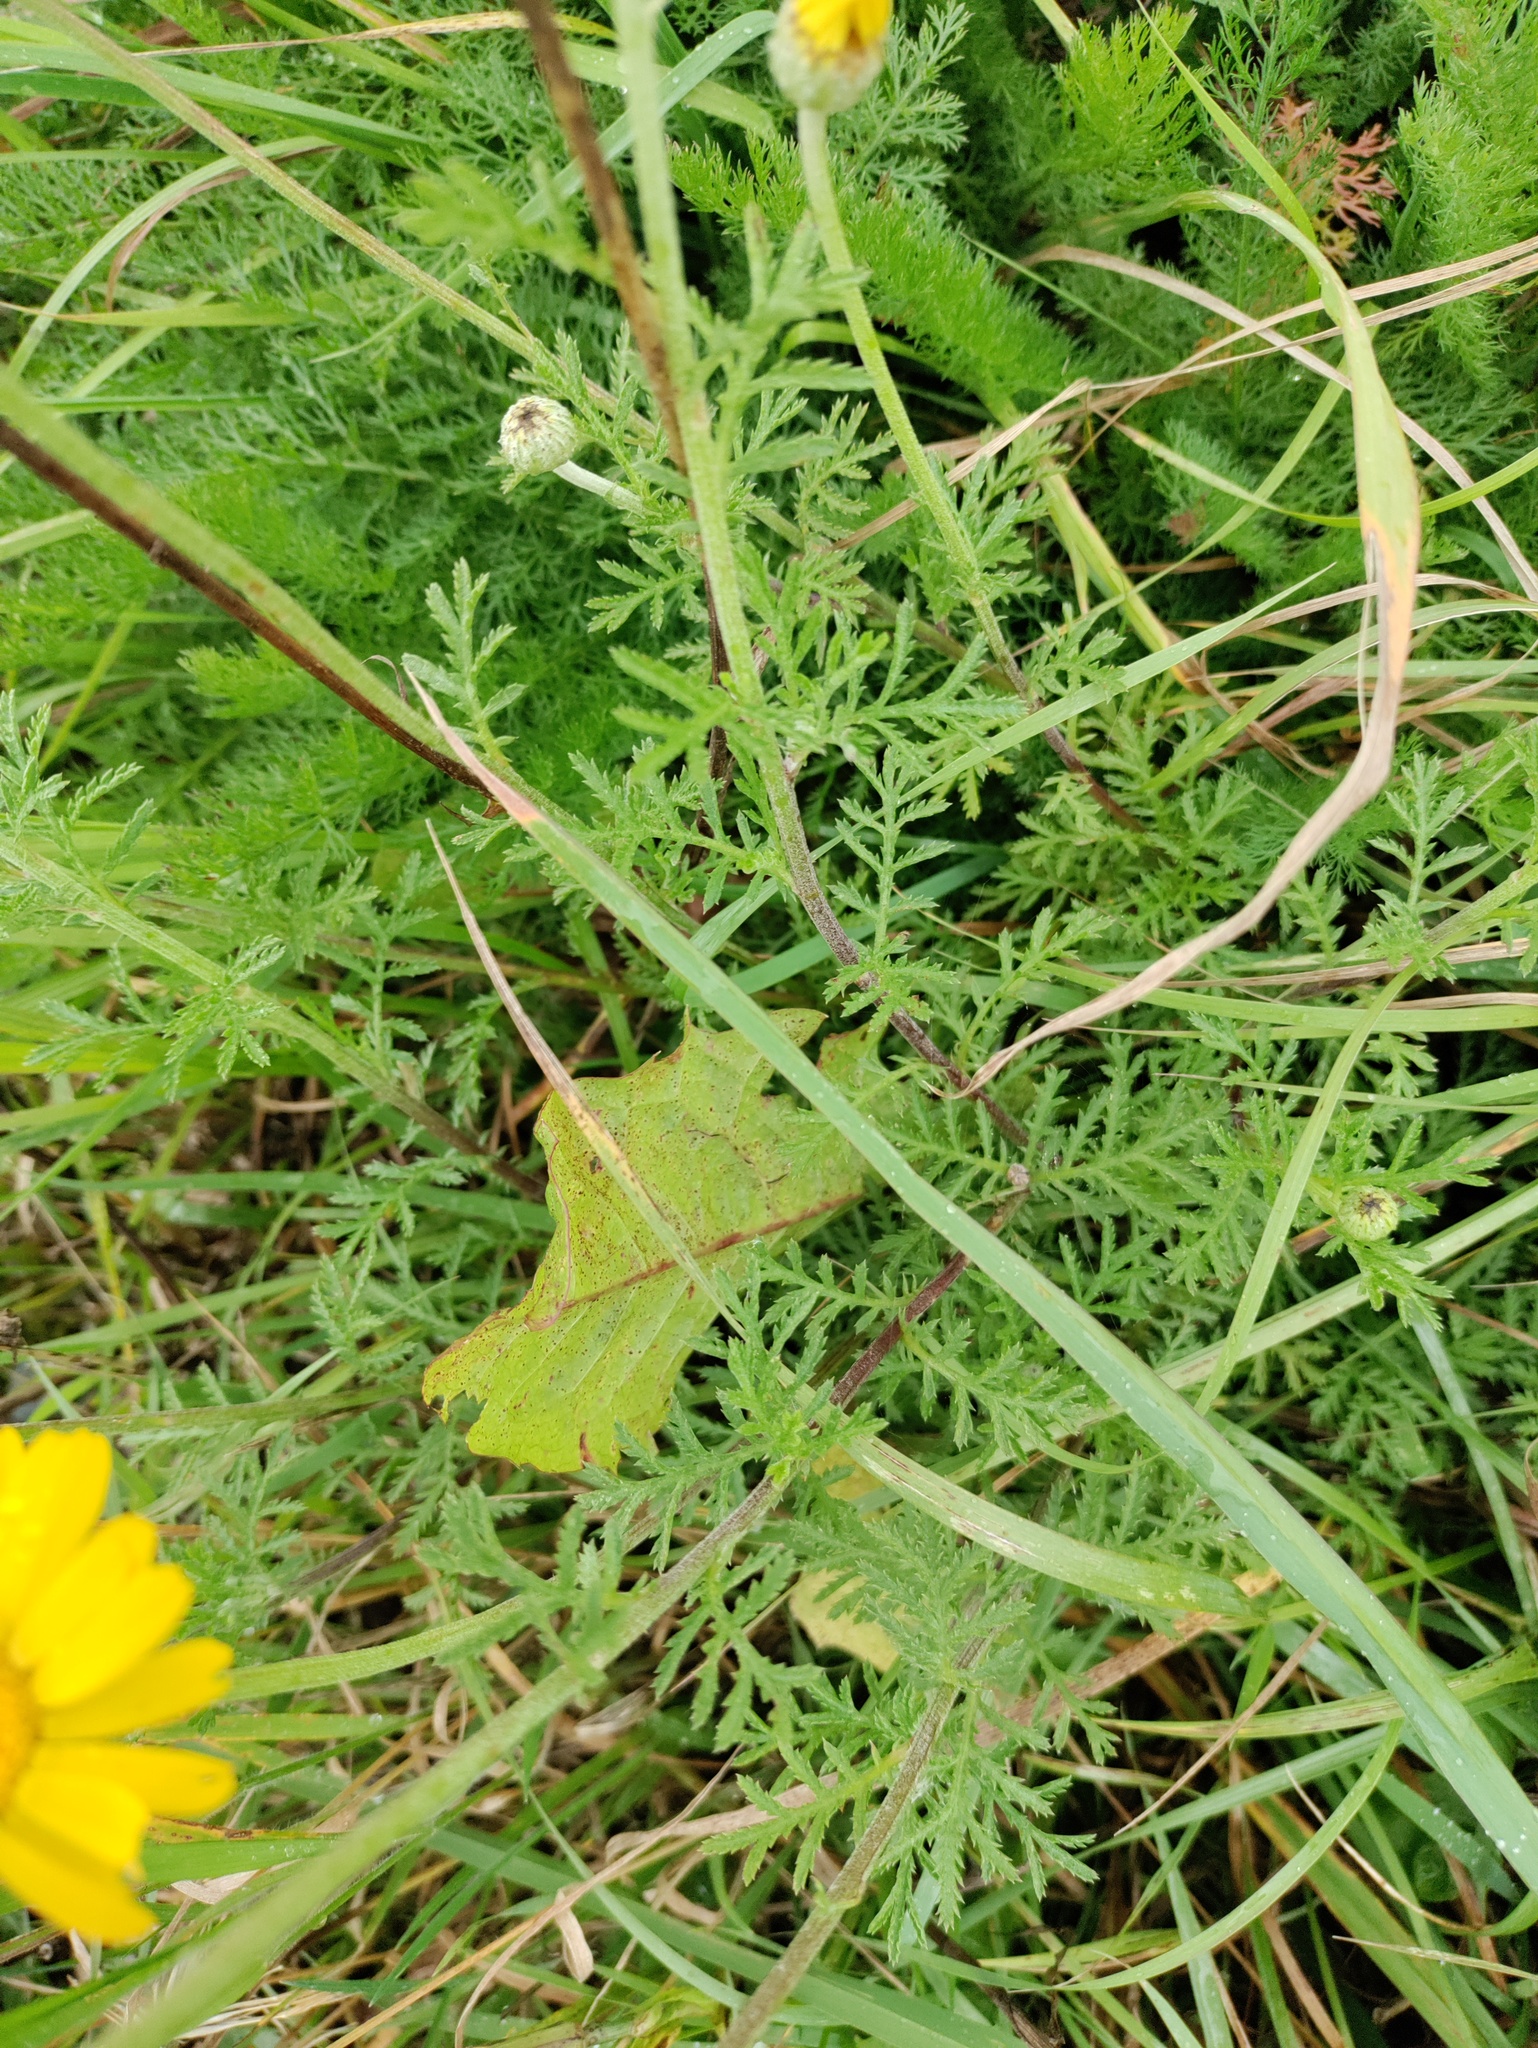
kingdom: Plantae
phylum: Tracheophyta
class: Magnoliopsida
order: Asterales
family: Asteraceae
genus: Cota
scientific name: Cota tinctoria
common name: Golden chamomile
